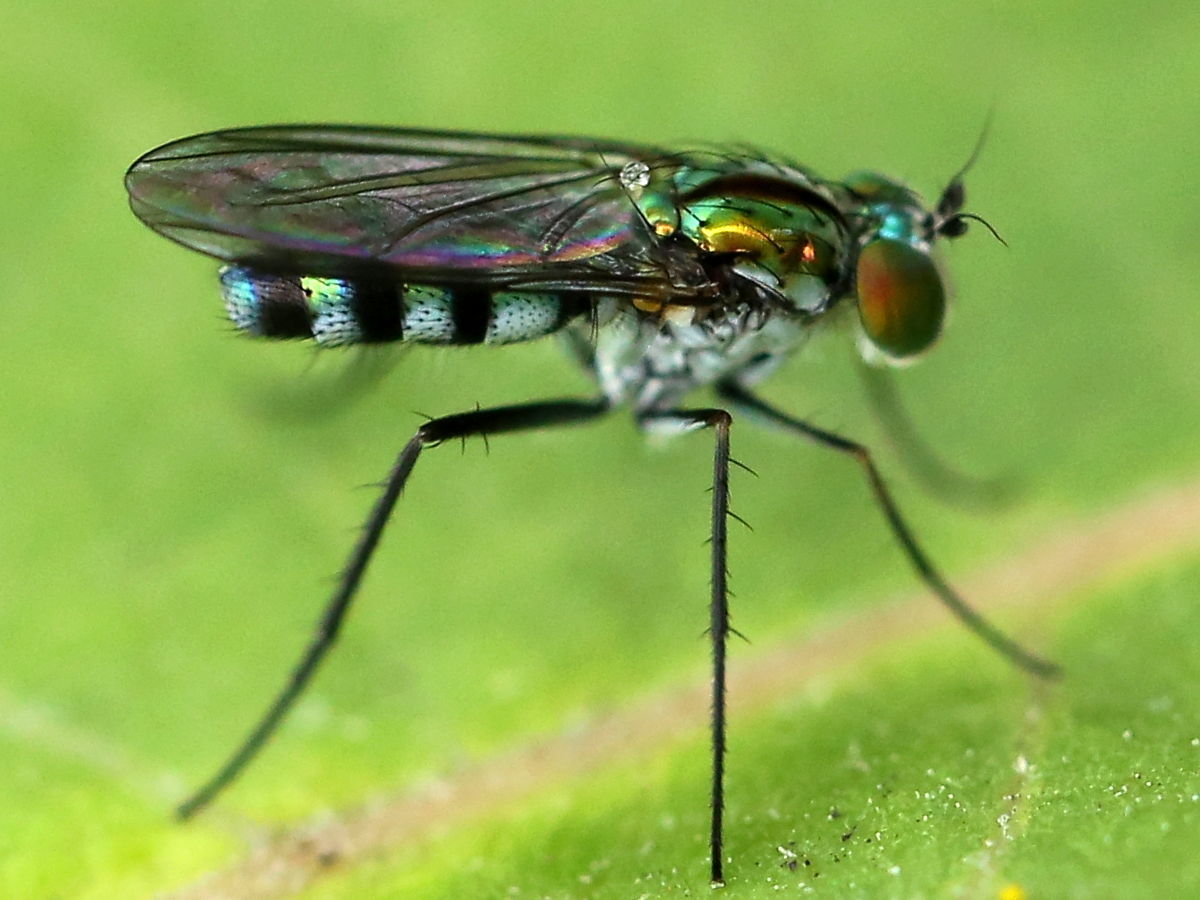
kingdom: Animalia
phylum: Arthropoda
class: Insecta
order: Diptera
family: Dolichopodidae
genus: Plagioneurus
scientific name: Plagioneurus univittatus
